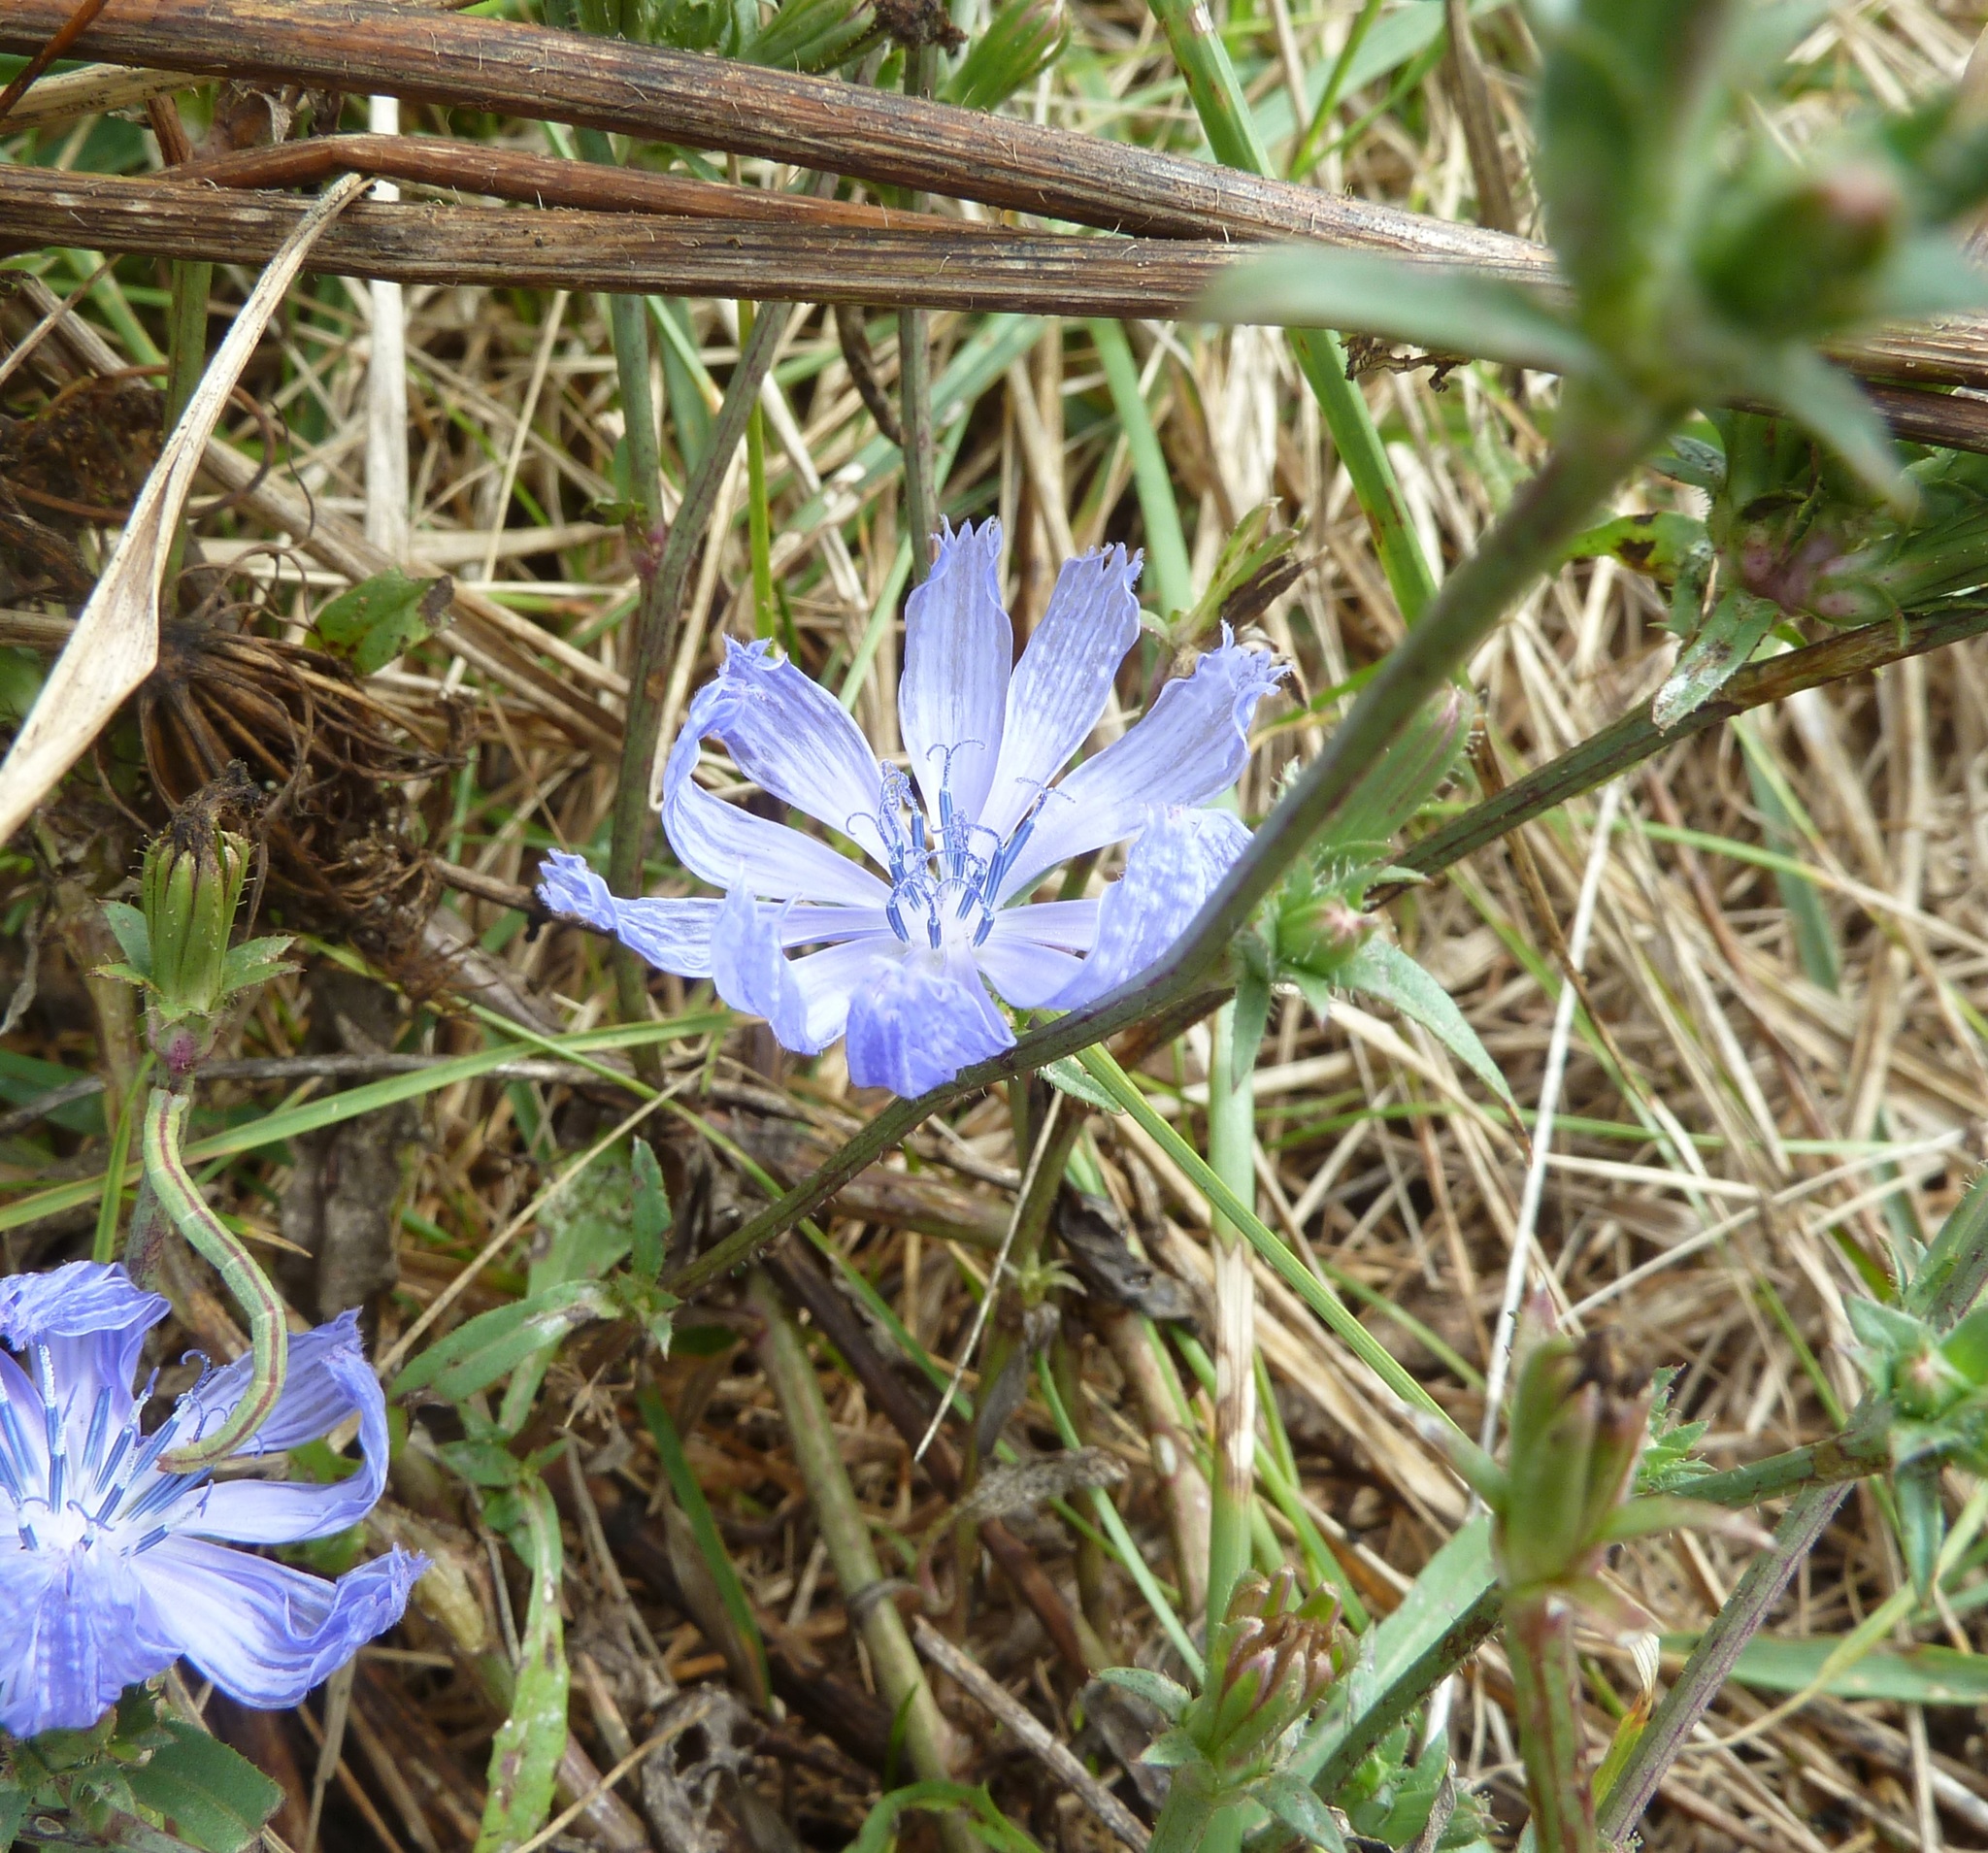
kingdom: Plantae
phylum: Tracheophyta
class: Magnoliopsida
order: Asterales
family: Asteraceae
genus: Cichorium
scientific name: Cichorium intybus
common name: Chicory
